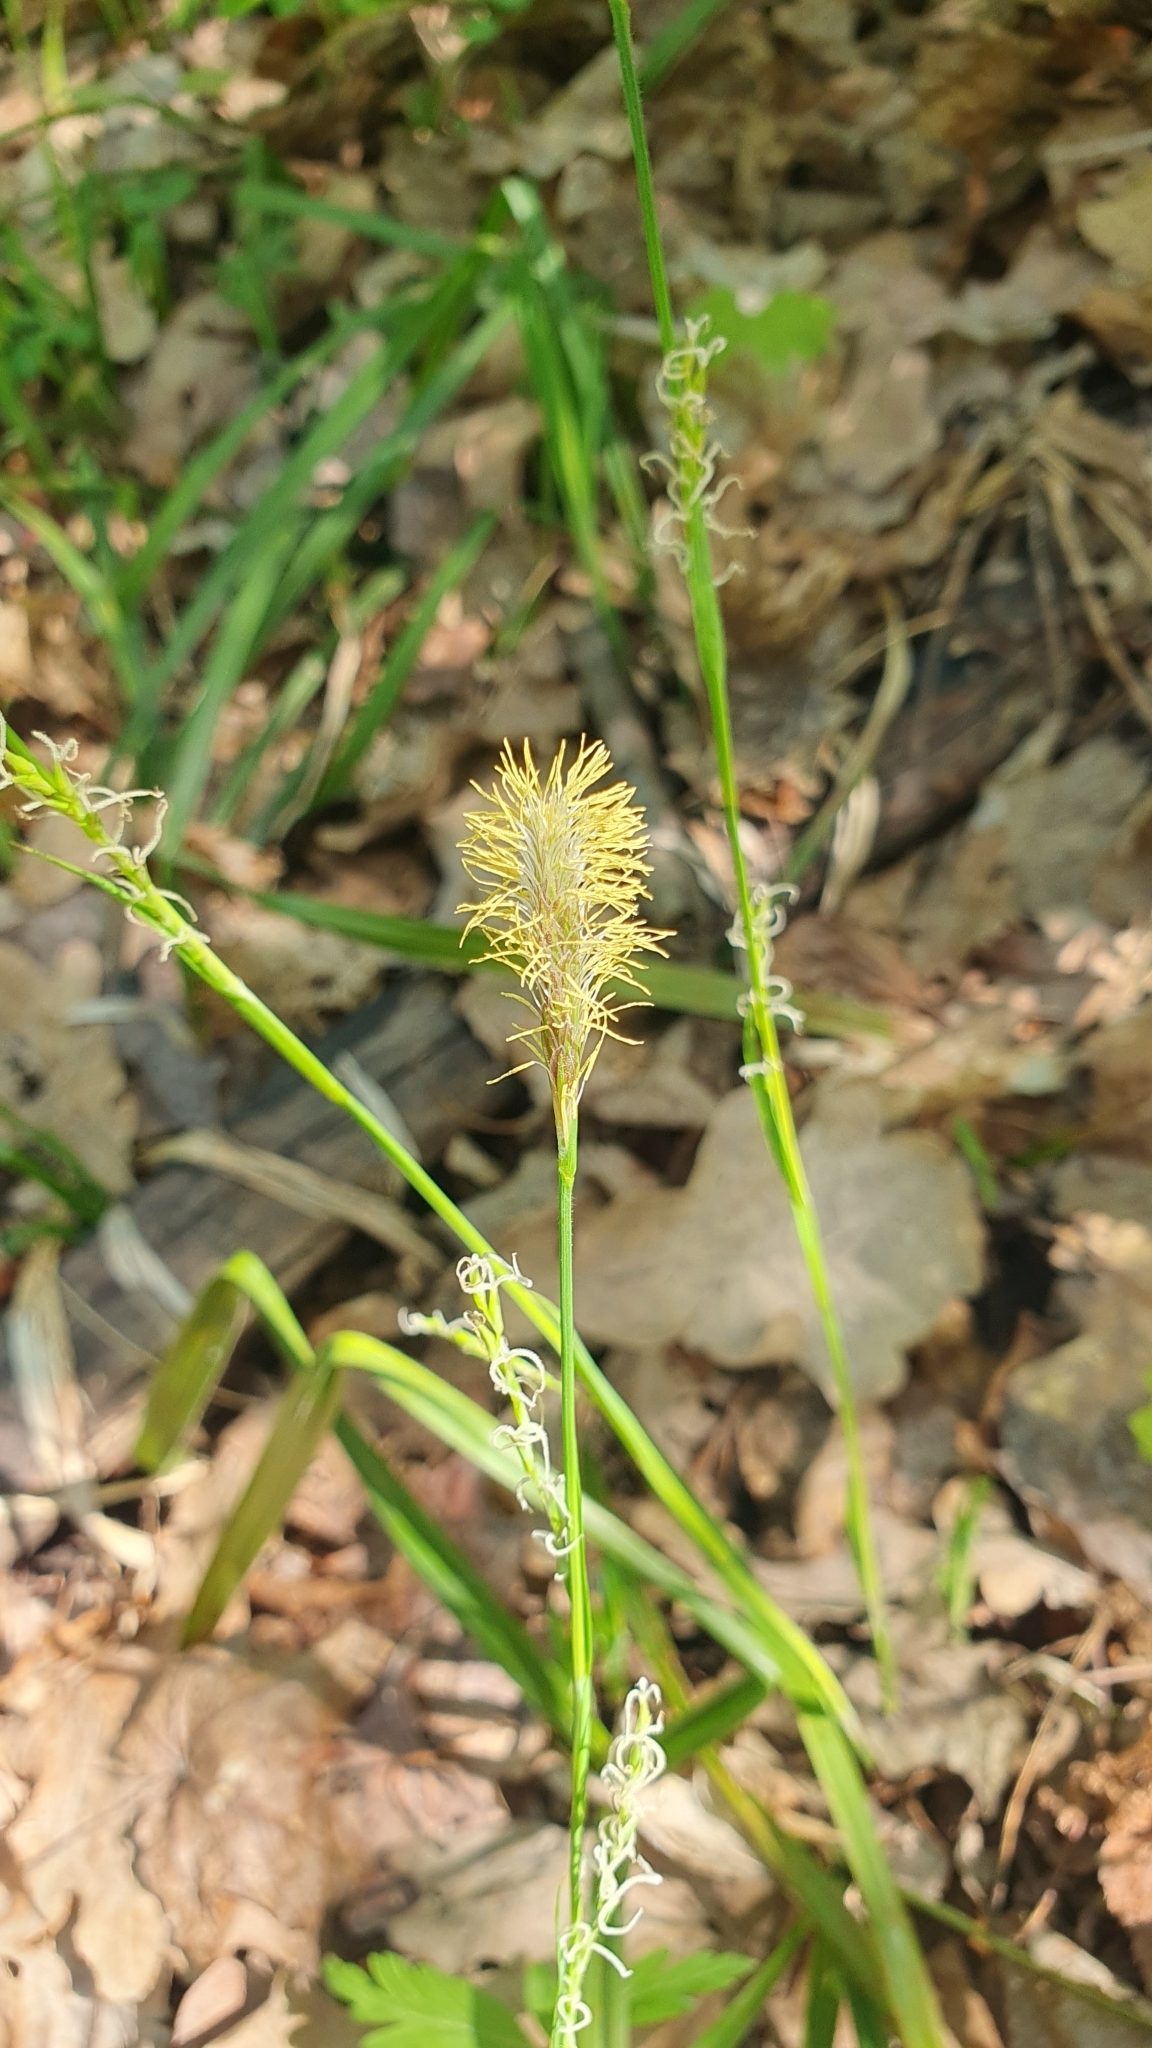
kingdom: Plantae
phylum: Tracheophyta
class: Liliopsida
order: Poales
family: Cyperaceae
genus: Carex
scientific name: Carex pilosa
